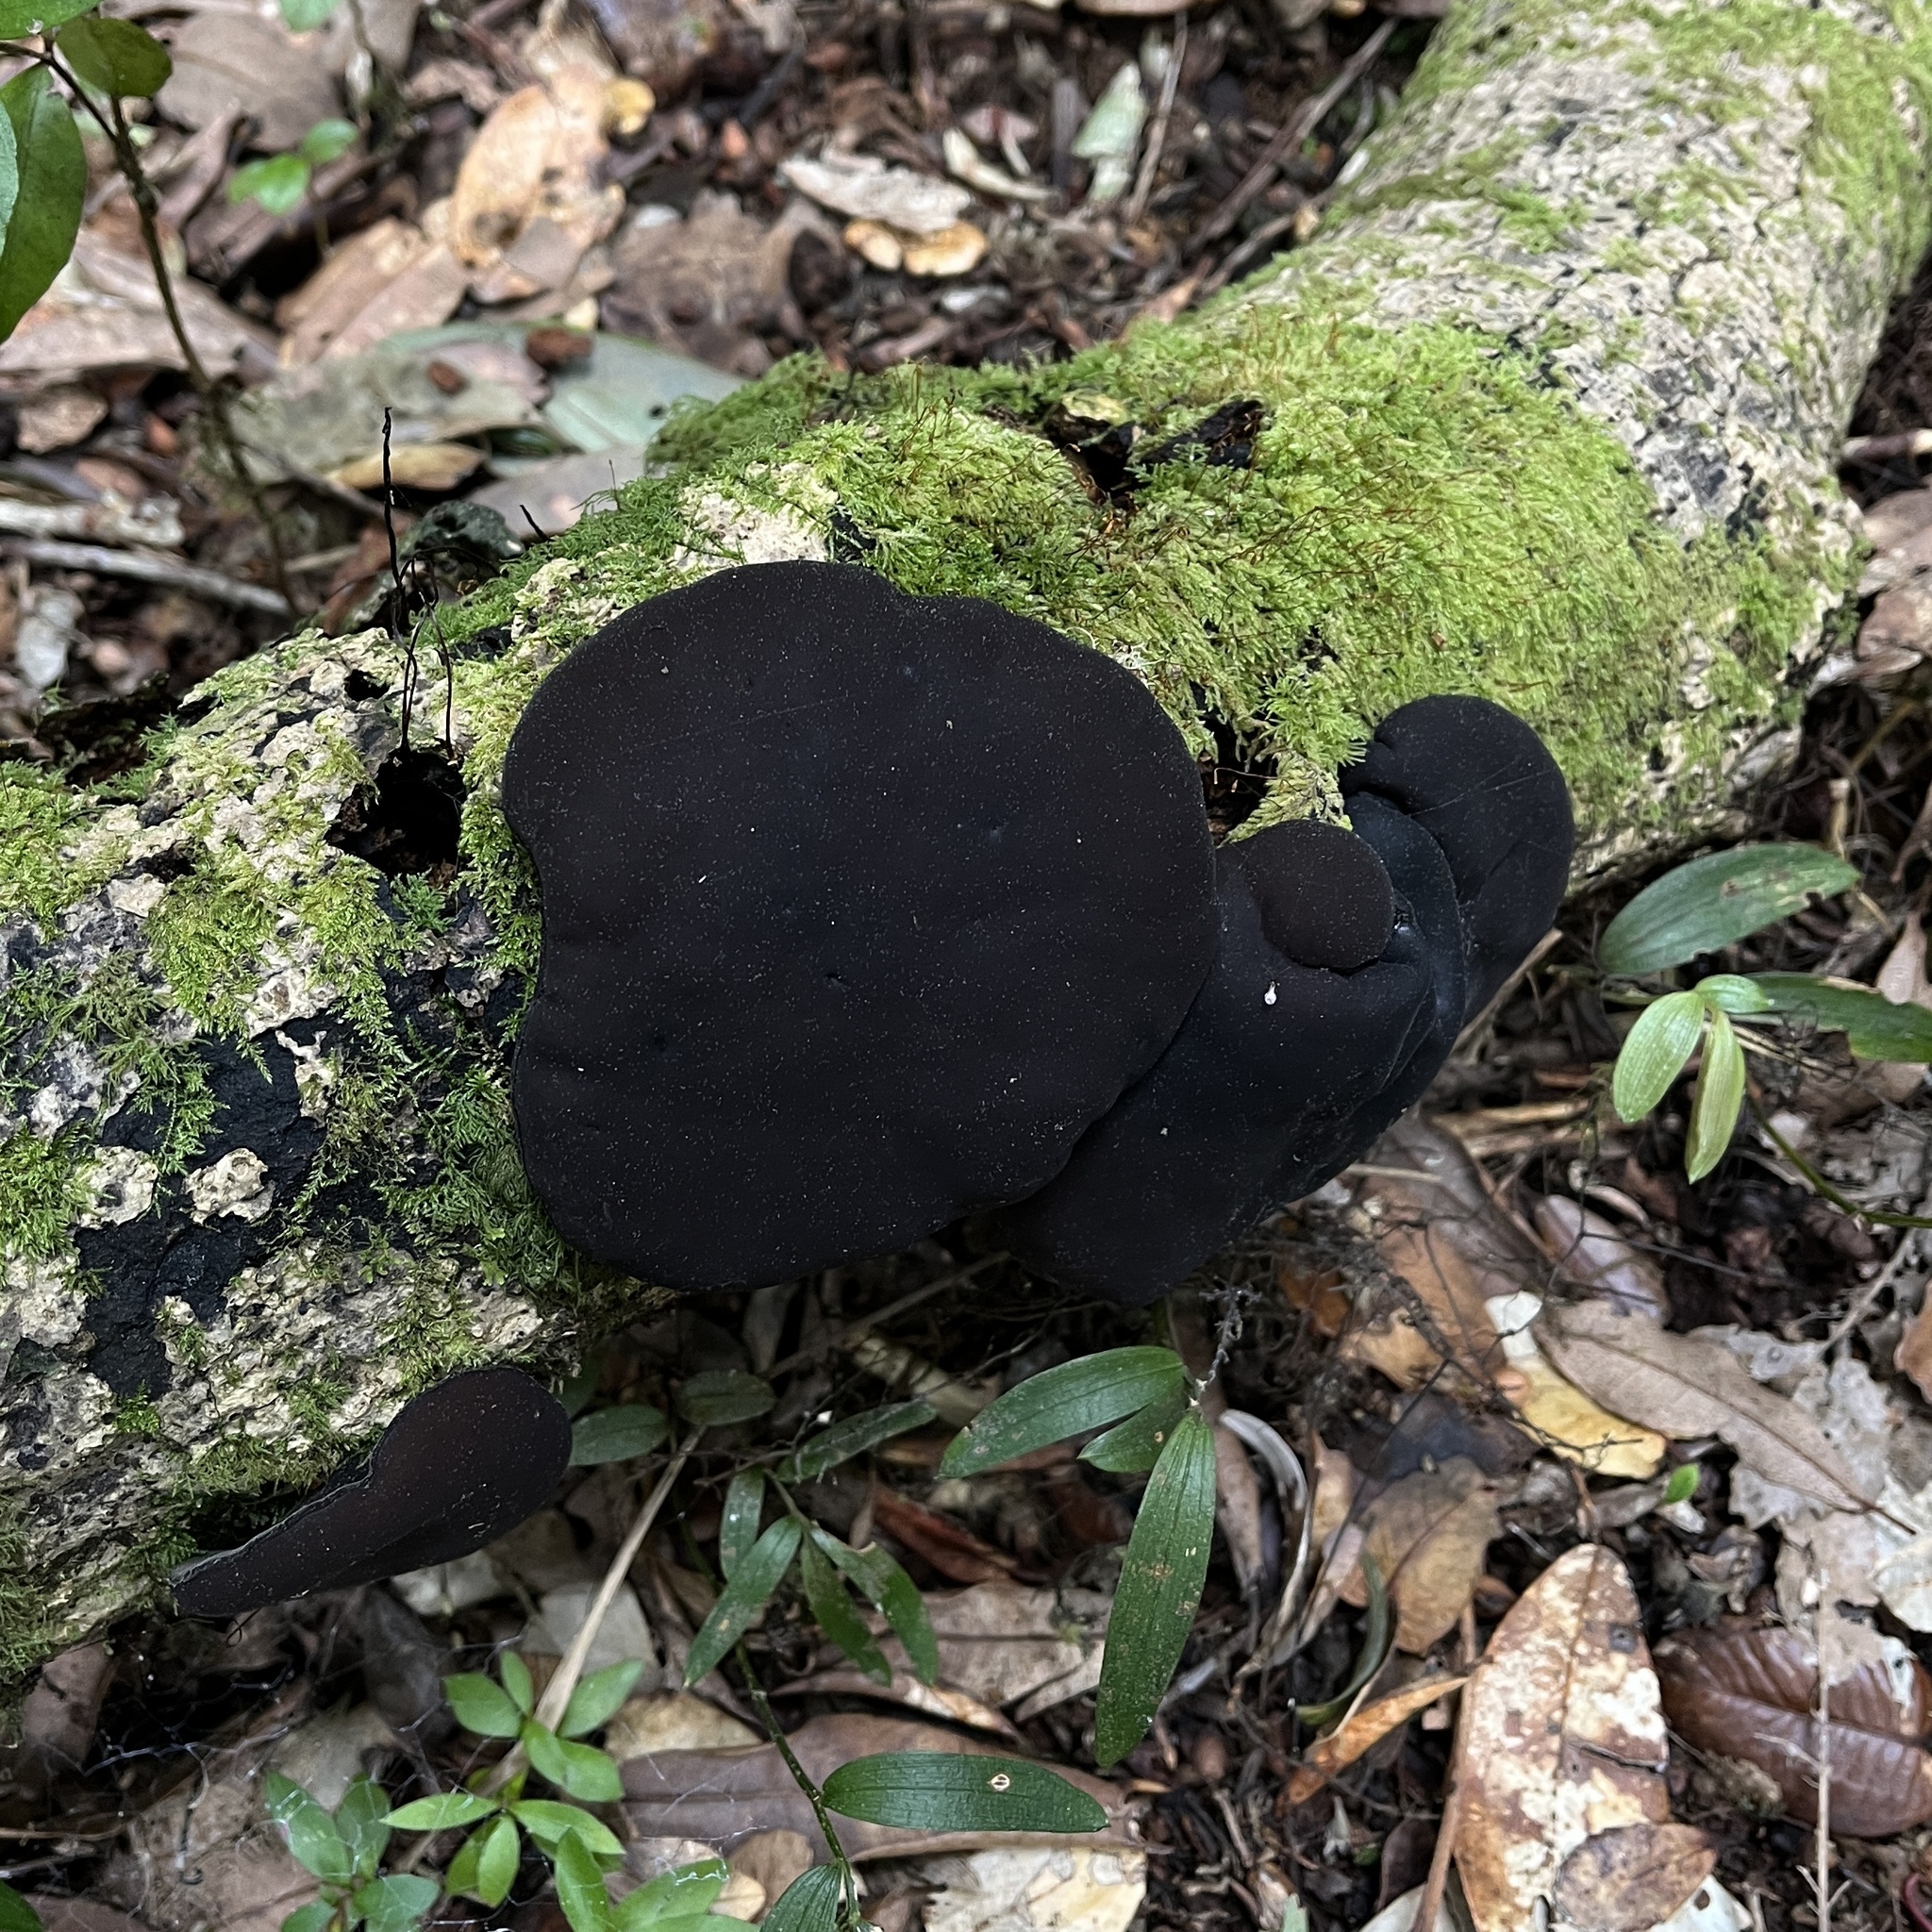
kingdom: Fungi
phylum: Ascomycota
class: Pezizomycetes
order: Pezizales
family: Sarcosomataceae
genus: Plectania
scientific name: Plectania chilensis
